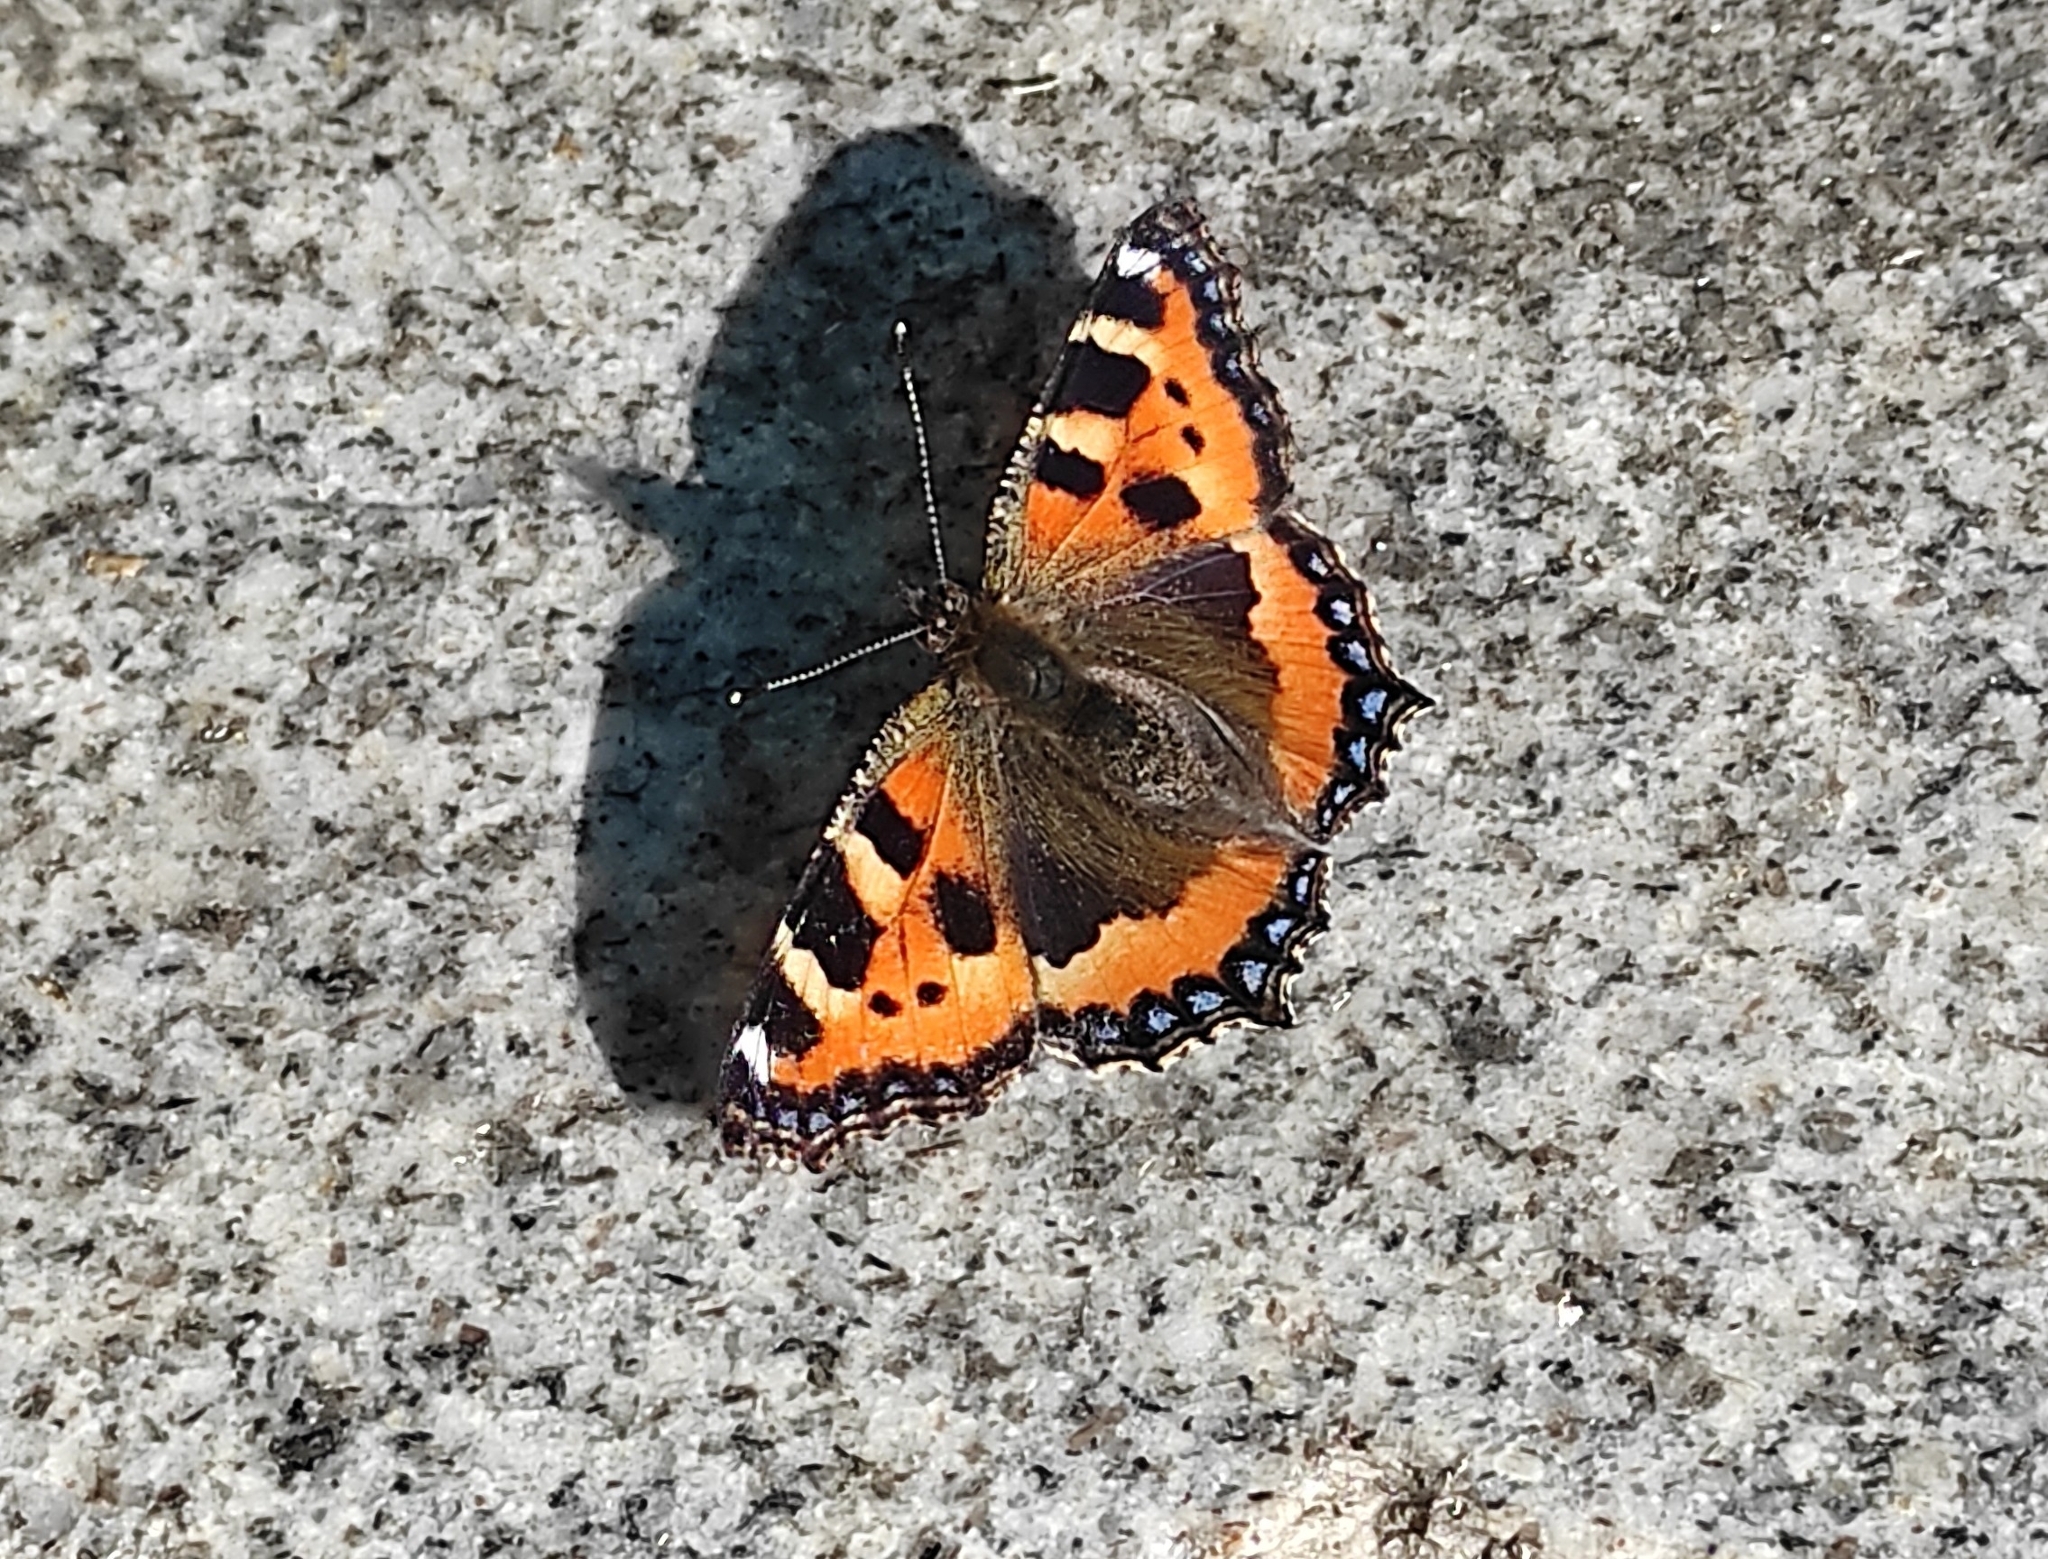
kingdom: Animalia
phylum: Arthropoda
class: Insecta
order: Lepidoptera
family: Nymphalidae
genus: Aglais
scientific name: Aglais urticae
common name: Small tortoiseshell
